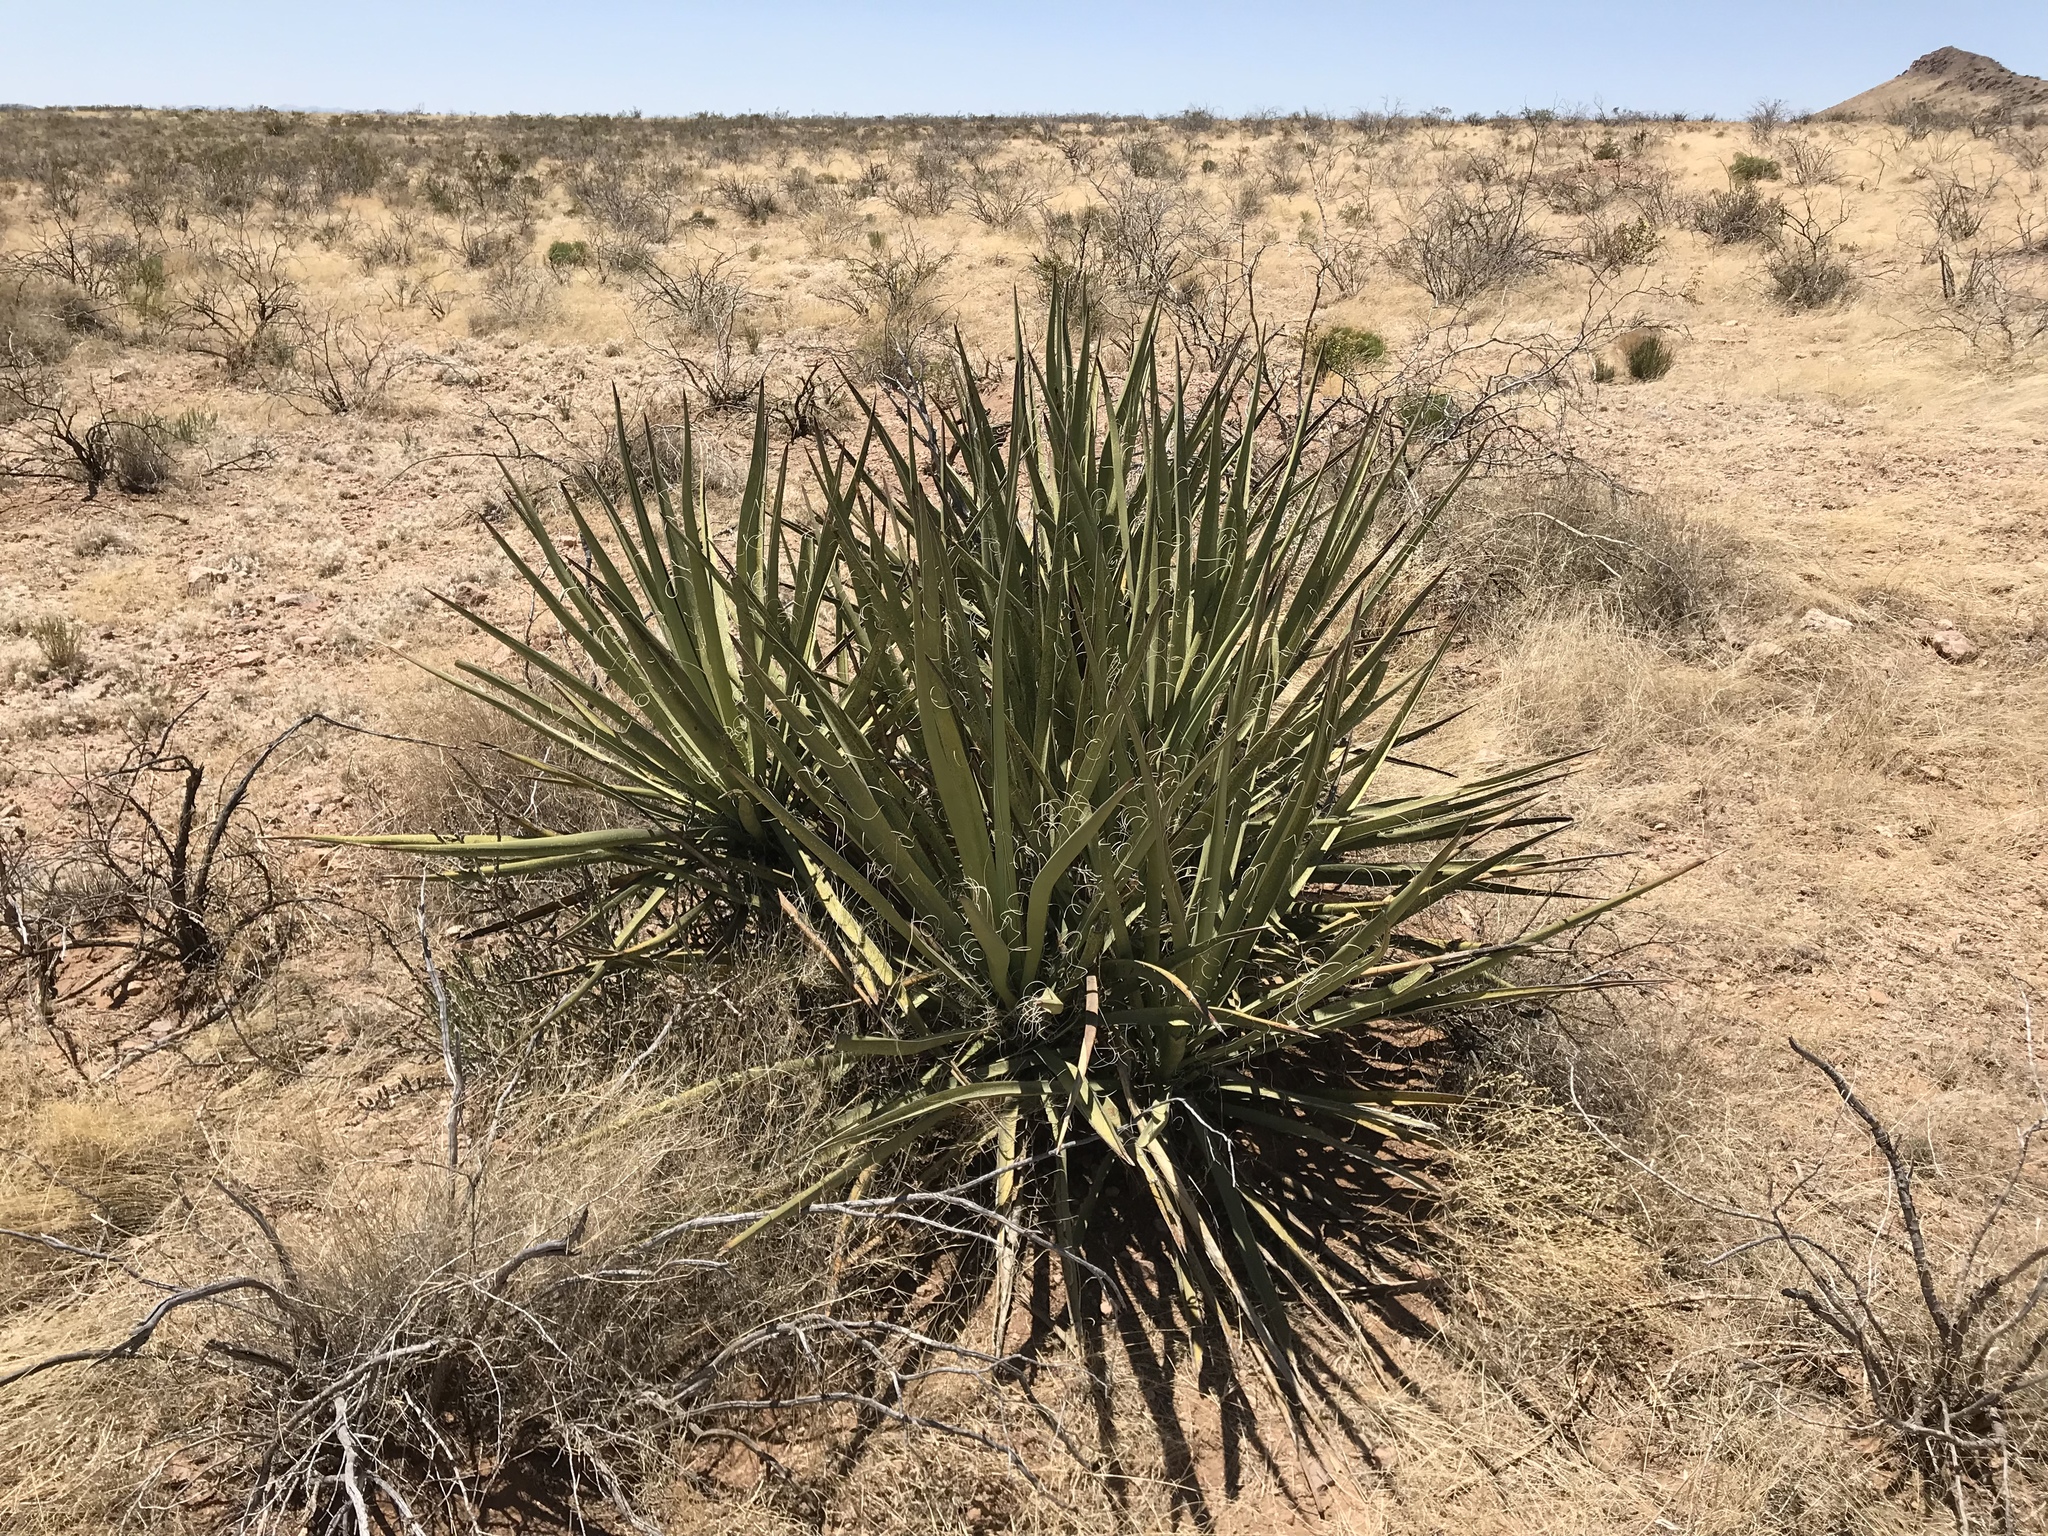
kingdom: Plantae
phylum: Tracheophyta
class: Liliopsida
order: Asparagales
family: Asparagaceae
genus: Yucca
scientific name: Yucca baccata
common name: Banana yucca
